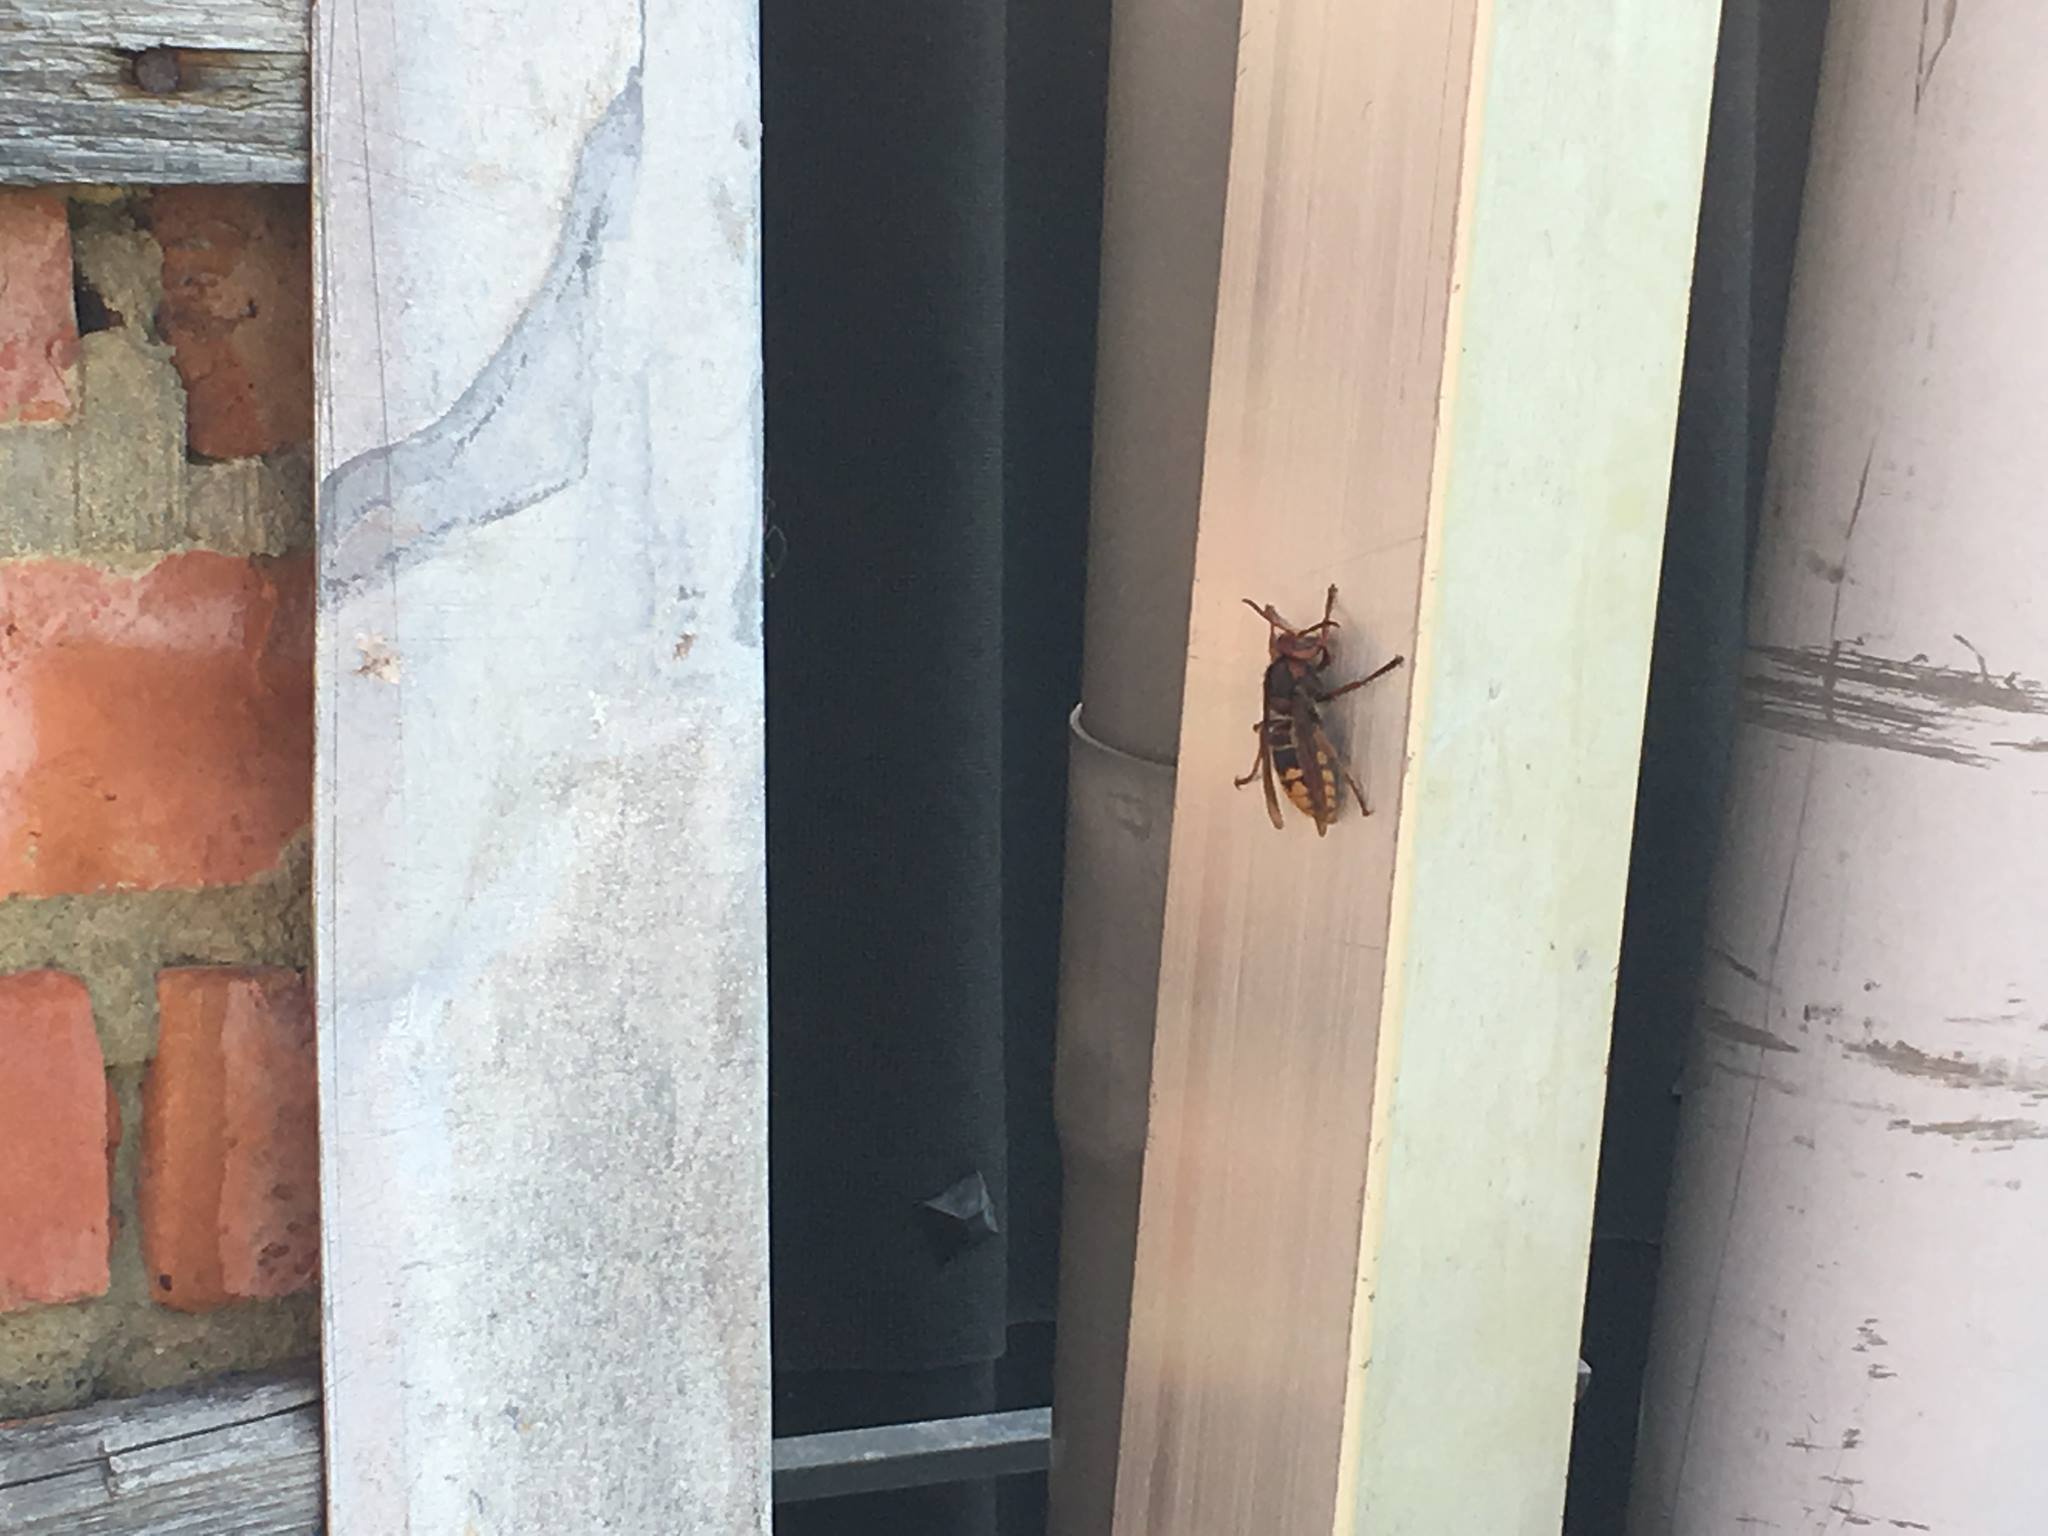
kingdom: Animalia
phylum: Arthropoda
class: Insecta
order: Hymenoptera
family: Vespidae
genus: Vespa
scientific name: Vespa crabro
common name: Hornet
